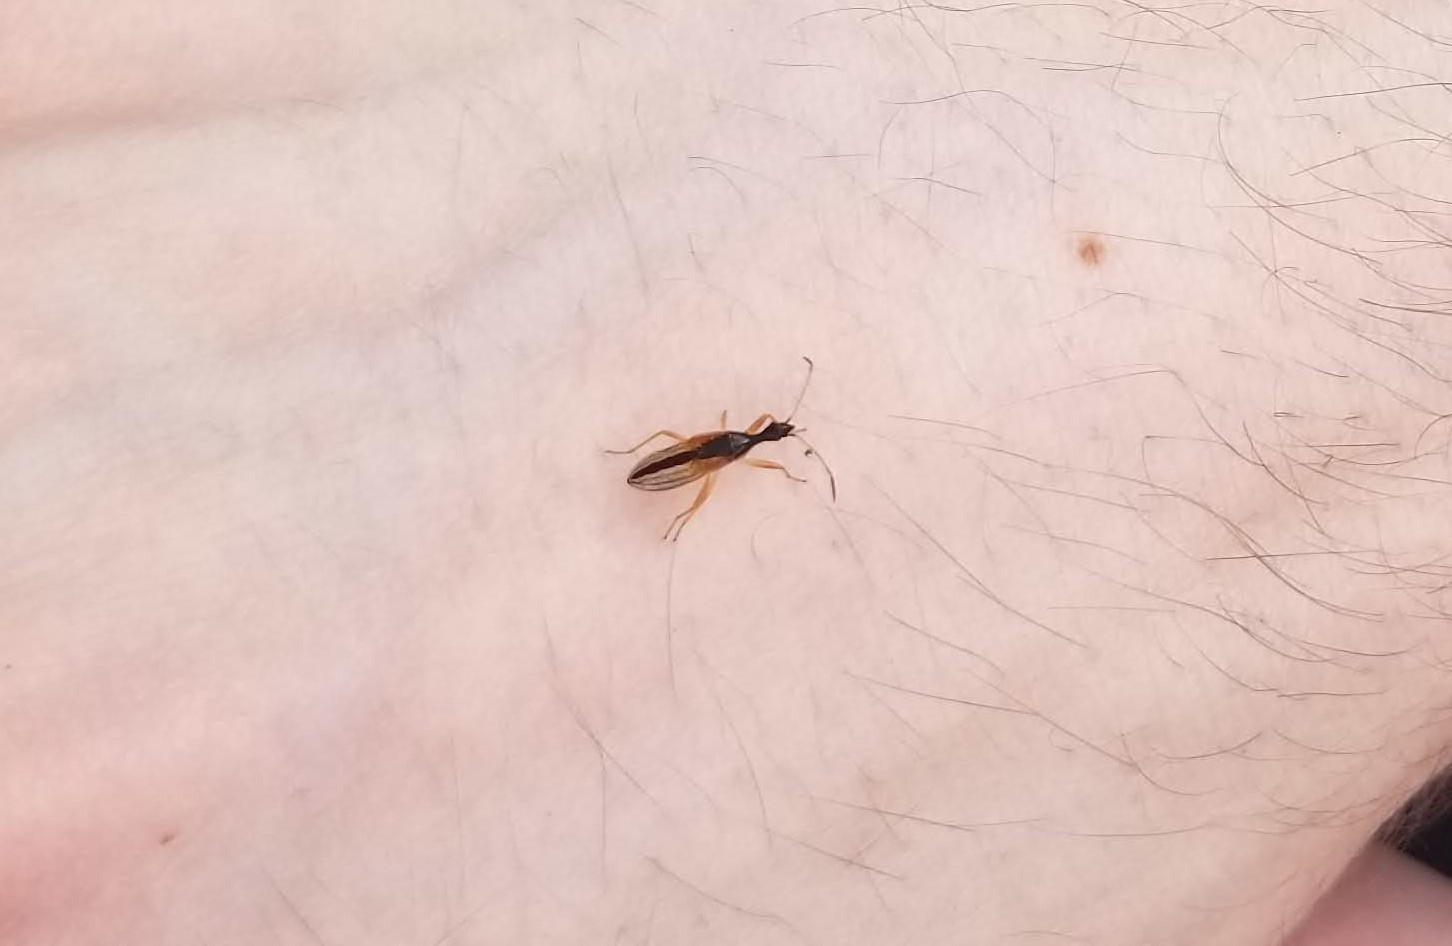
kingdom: Animalia
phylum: Arthropoda
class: Insecta
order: Hemiptera
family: Rhyparochromidae
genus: Myodocha
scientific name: Myodocha serripes
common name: Long-necked seed bug
